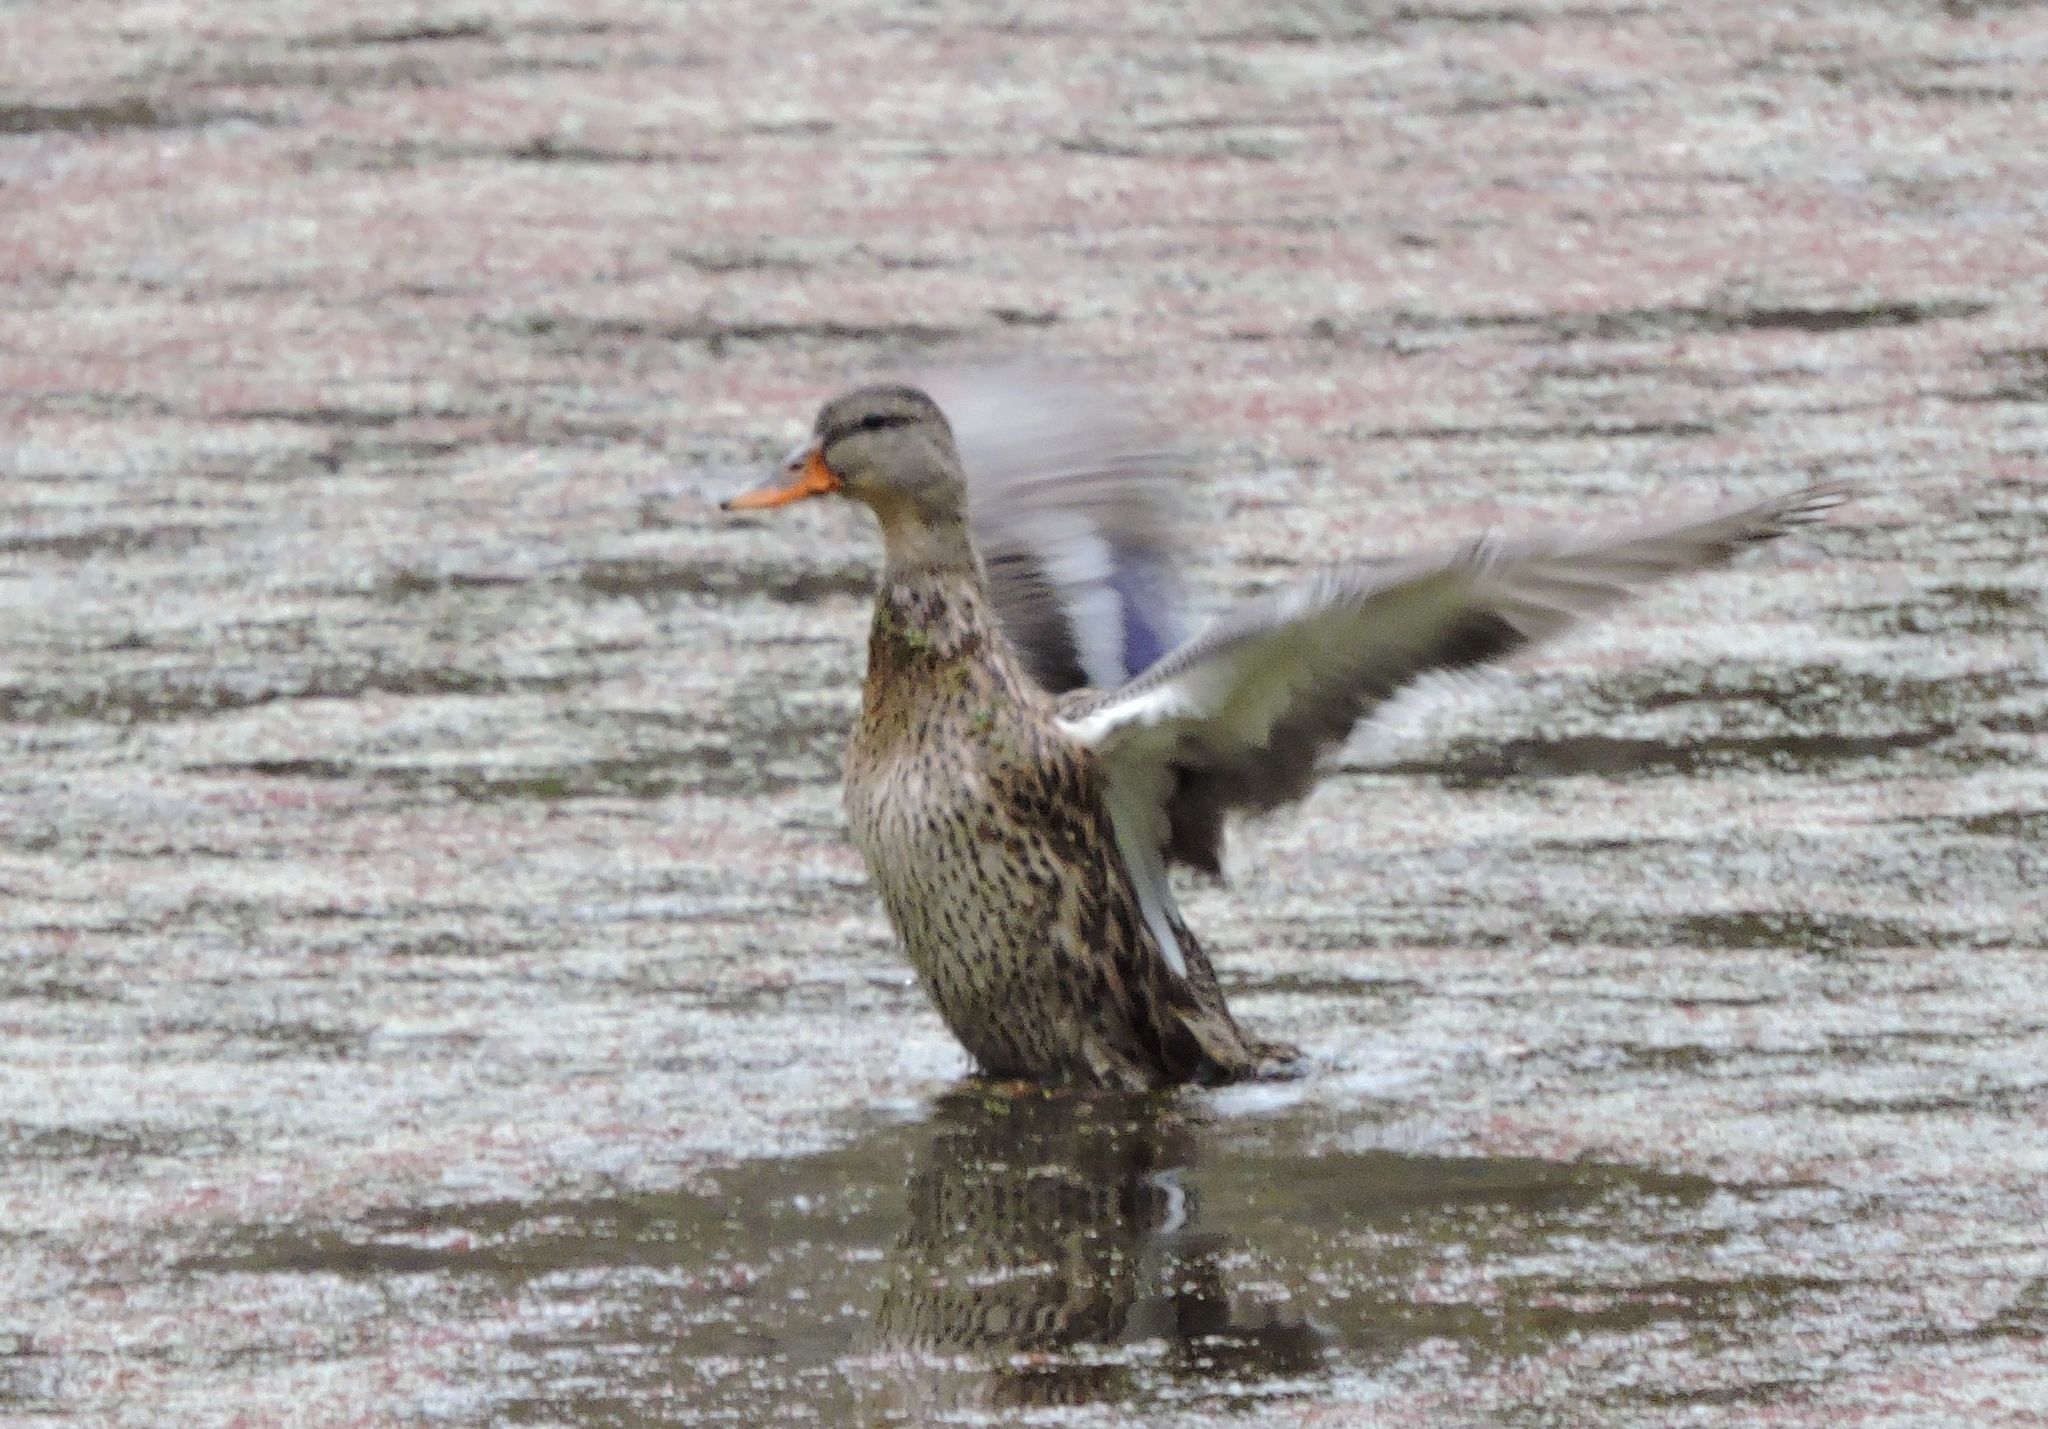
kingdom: Animalia
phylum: Chordata
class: Aves
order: Anseriformes
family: Anatidae
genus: Anas
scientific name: Anas platyrhynchos
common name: Mallard
